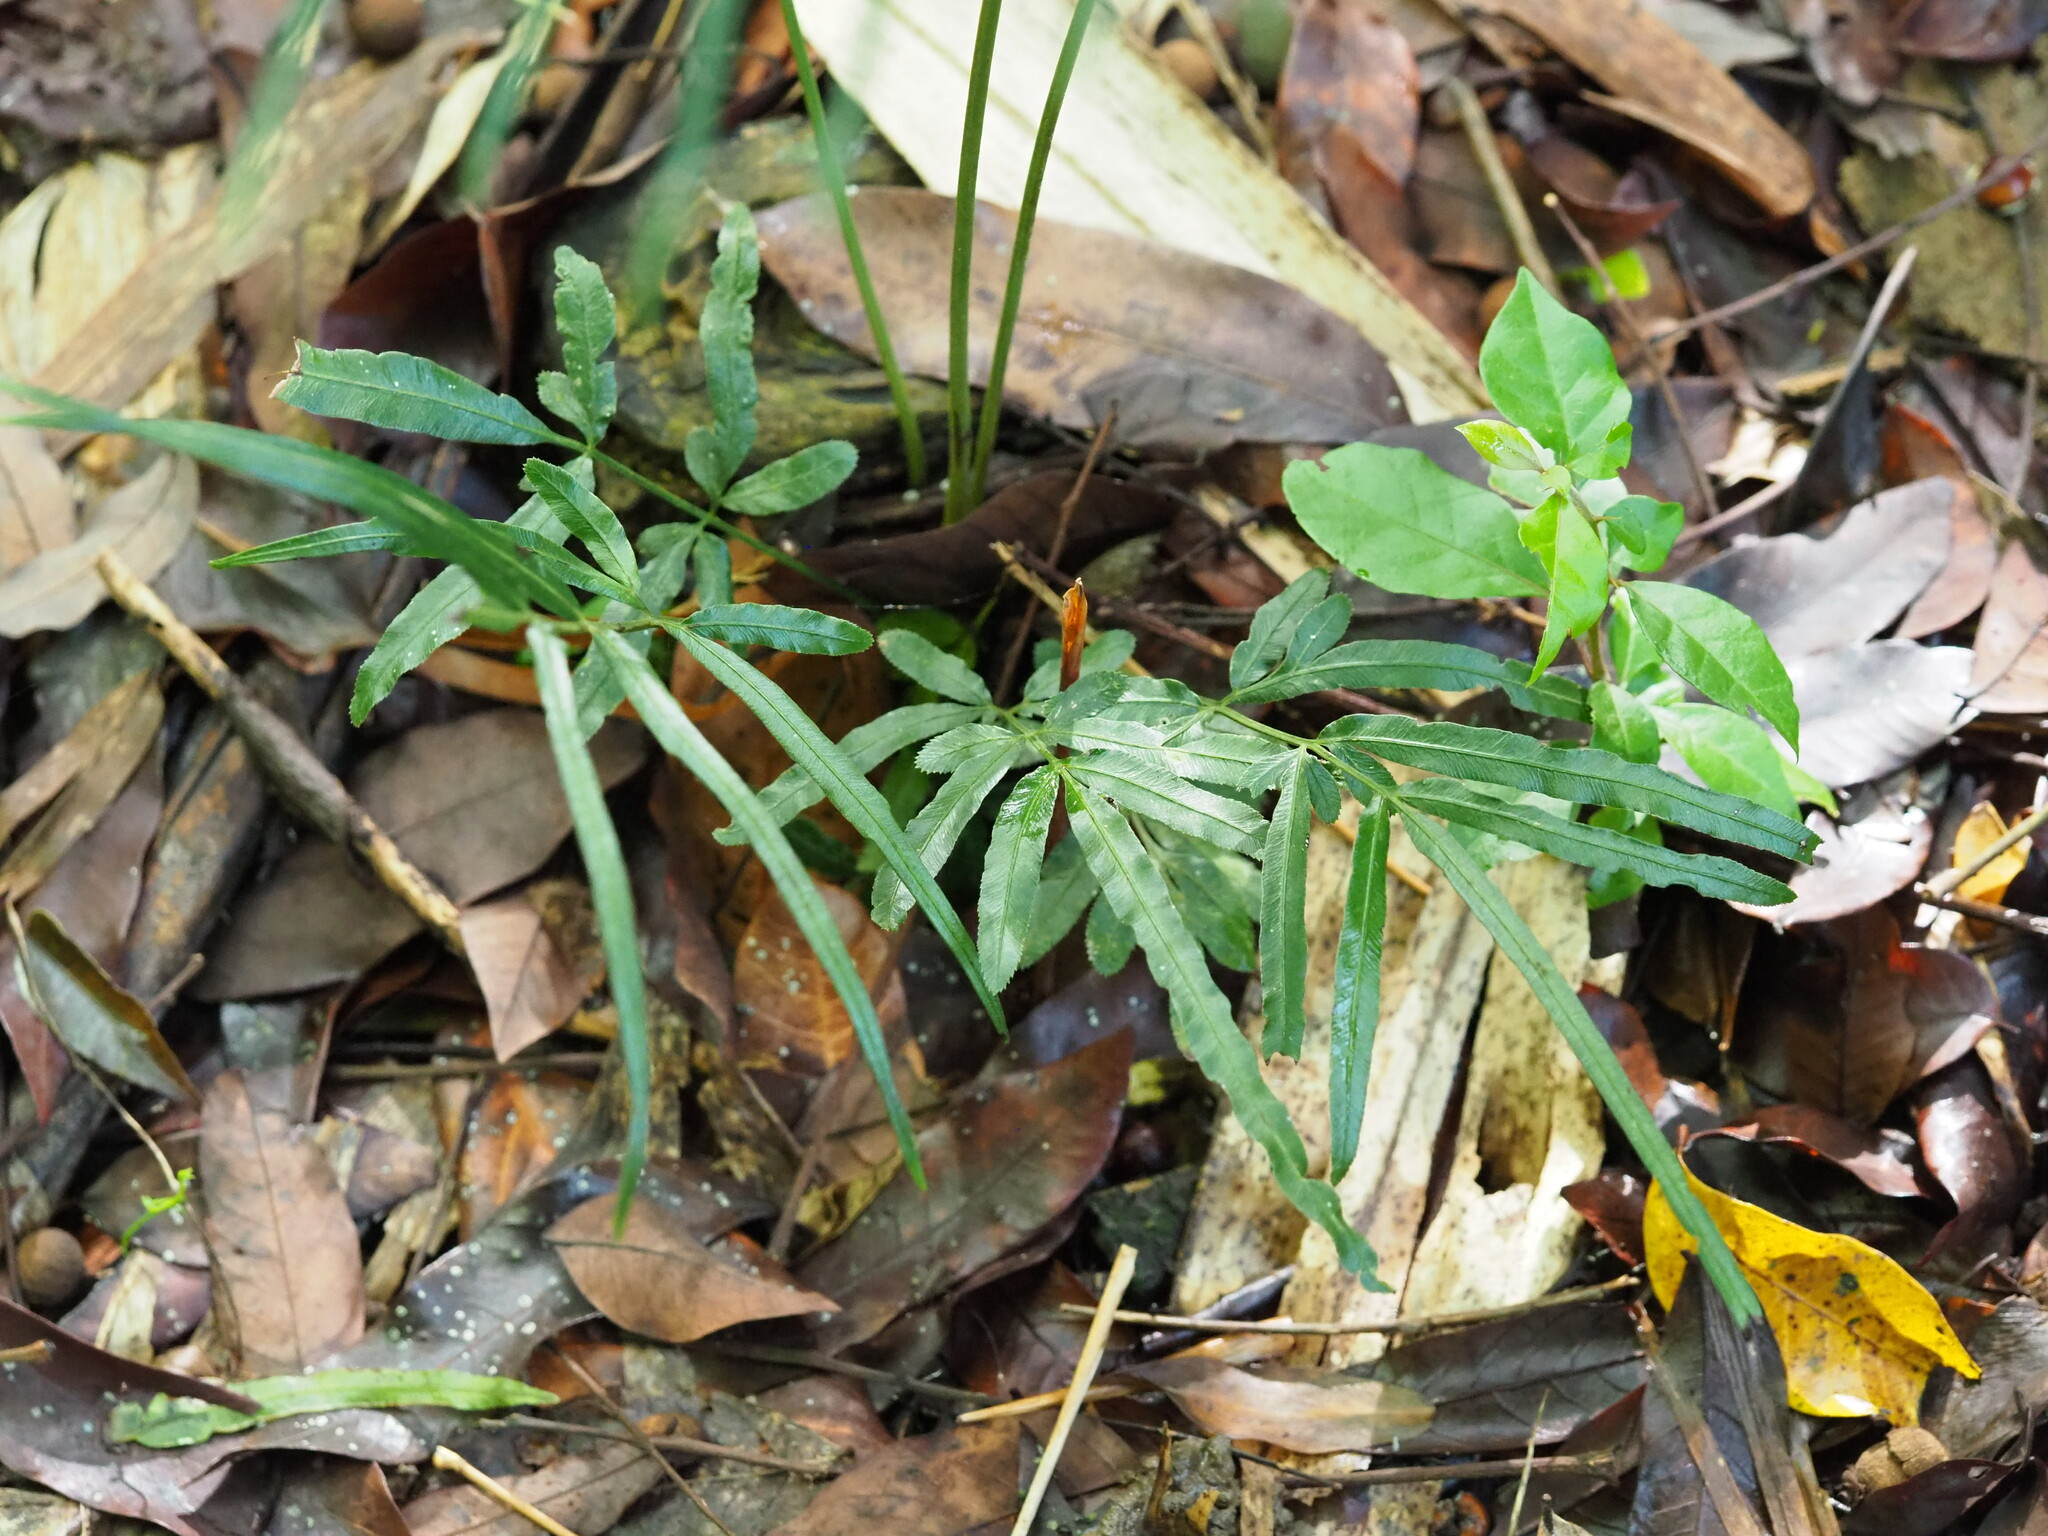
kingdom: Plantae
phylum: Tracheophyta
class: Polypodiopsida
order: Polypodiales
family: Pteridaceae
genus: Pteris
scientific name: Pteris ensiformis
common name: Sword brake
